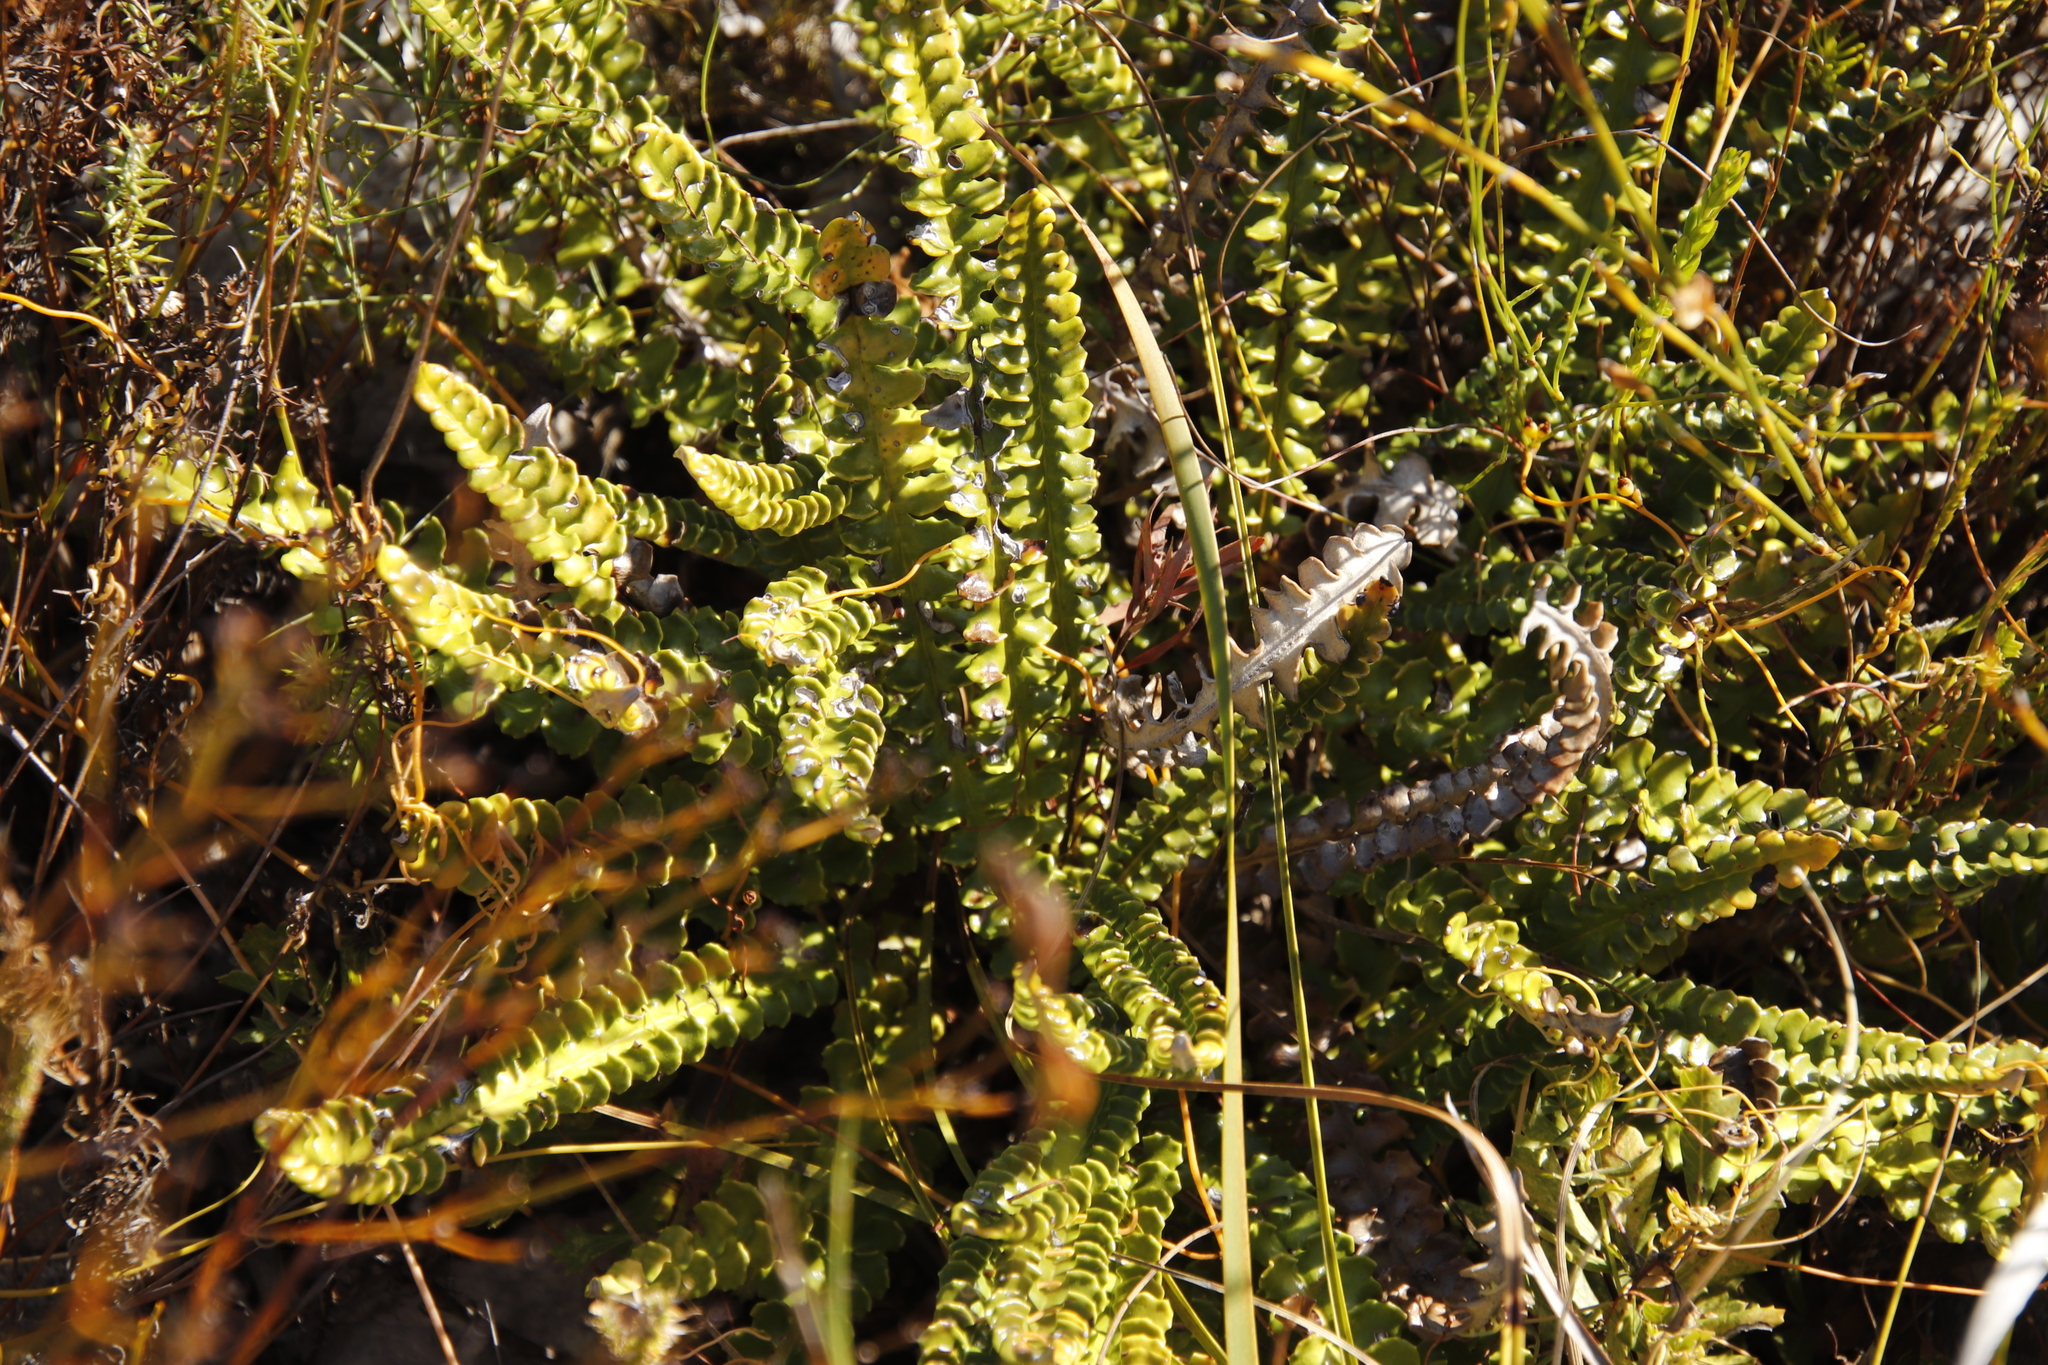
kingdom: Plantae
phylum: Tracheophyta
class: Magnoliopsida
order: Asterales
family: Asteraceae
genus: Gerbera
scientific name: Gerbera linnaei
